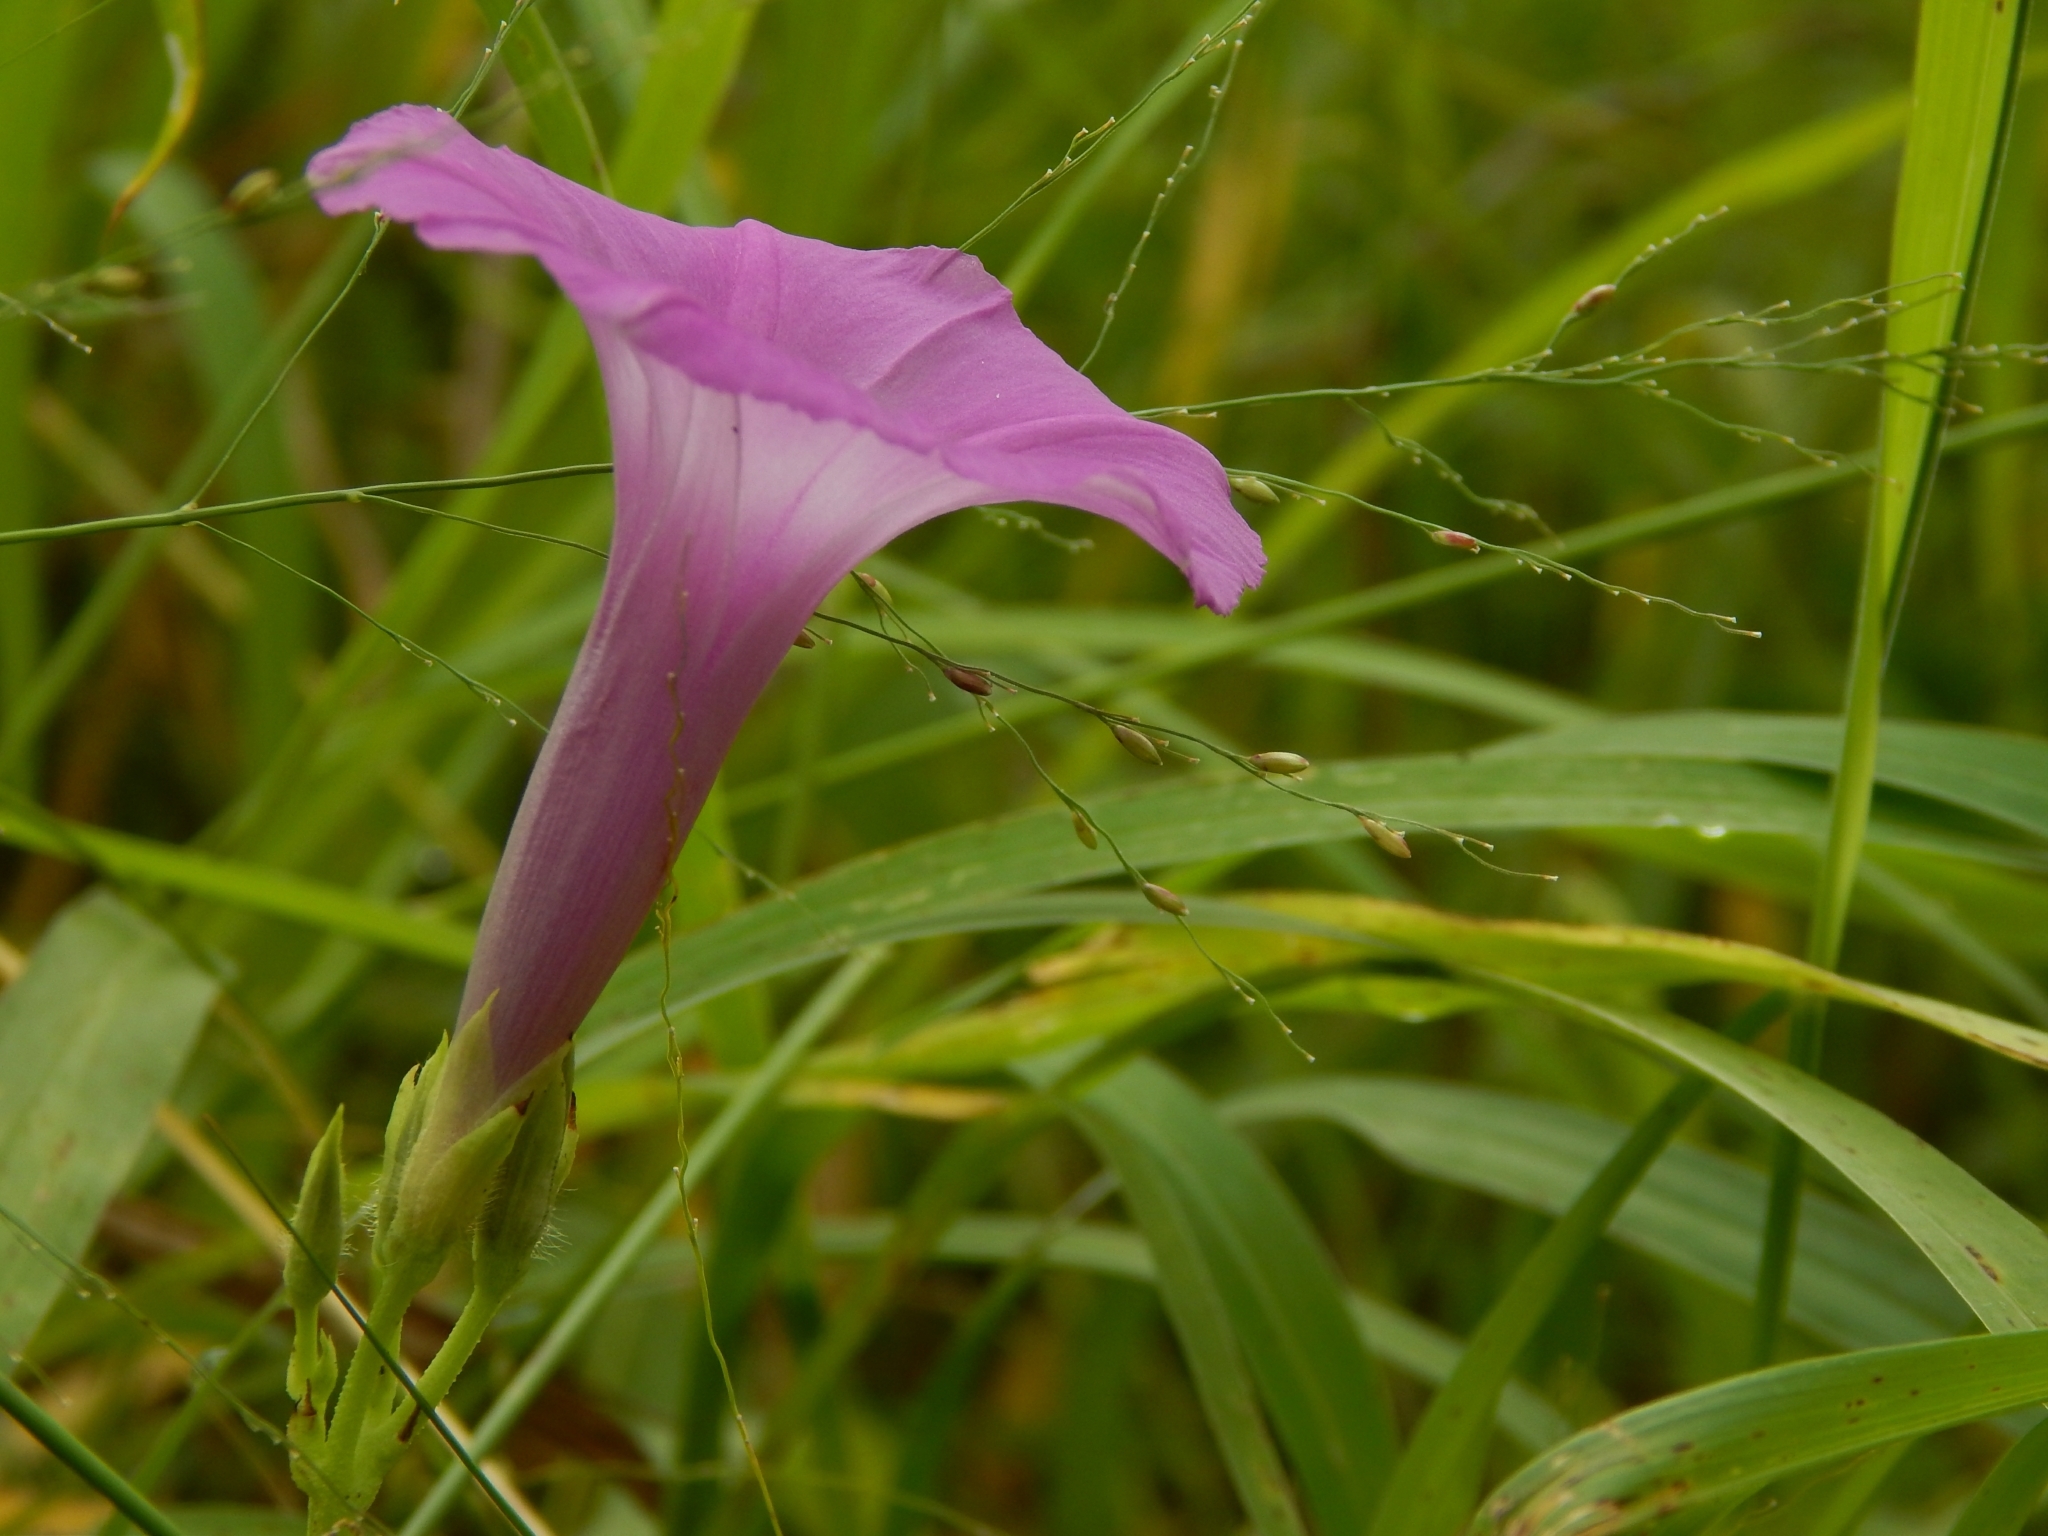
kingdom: Plantae
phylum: Tracheophyta
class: Magnoliopsida
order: Solanales
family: Convolvulaceae
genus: Ipomoea
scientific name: Ipomoea cordatotriloba
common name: Cotton morning glory
